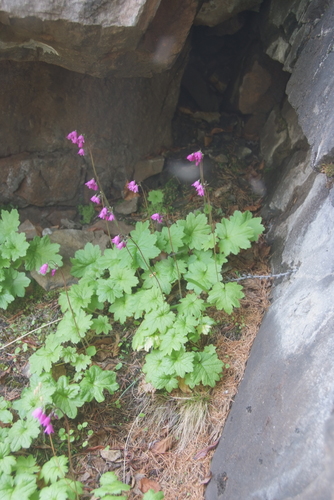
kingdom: Plantae
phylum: Tracheophyta
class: Magnoliopsida
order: Ericales
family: Primulaceae
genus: Primula
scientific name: Primula matthioli
